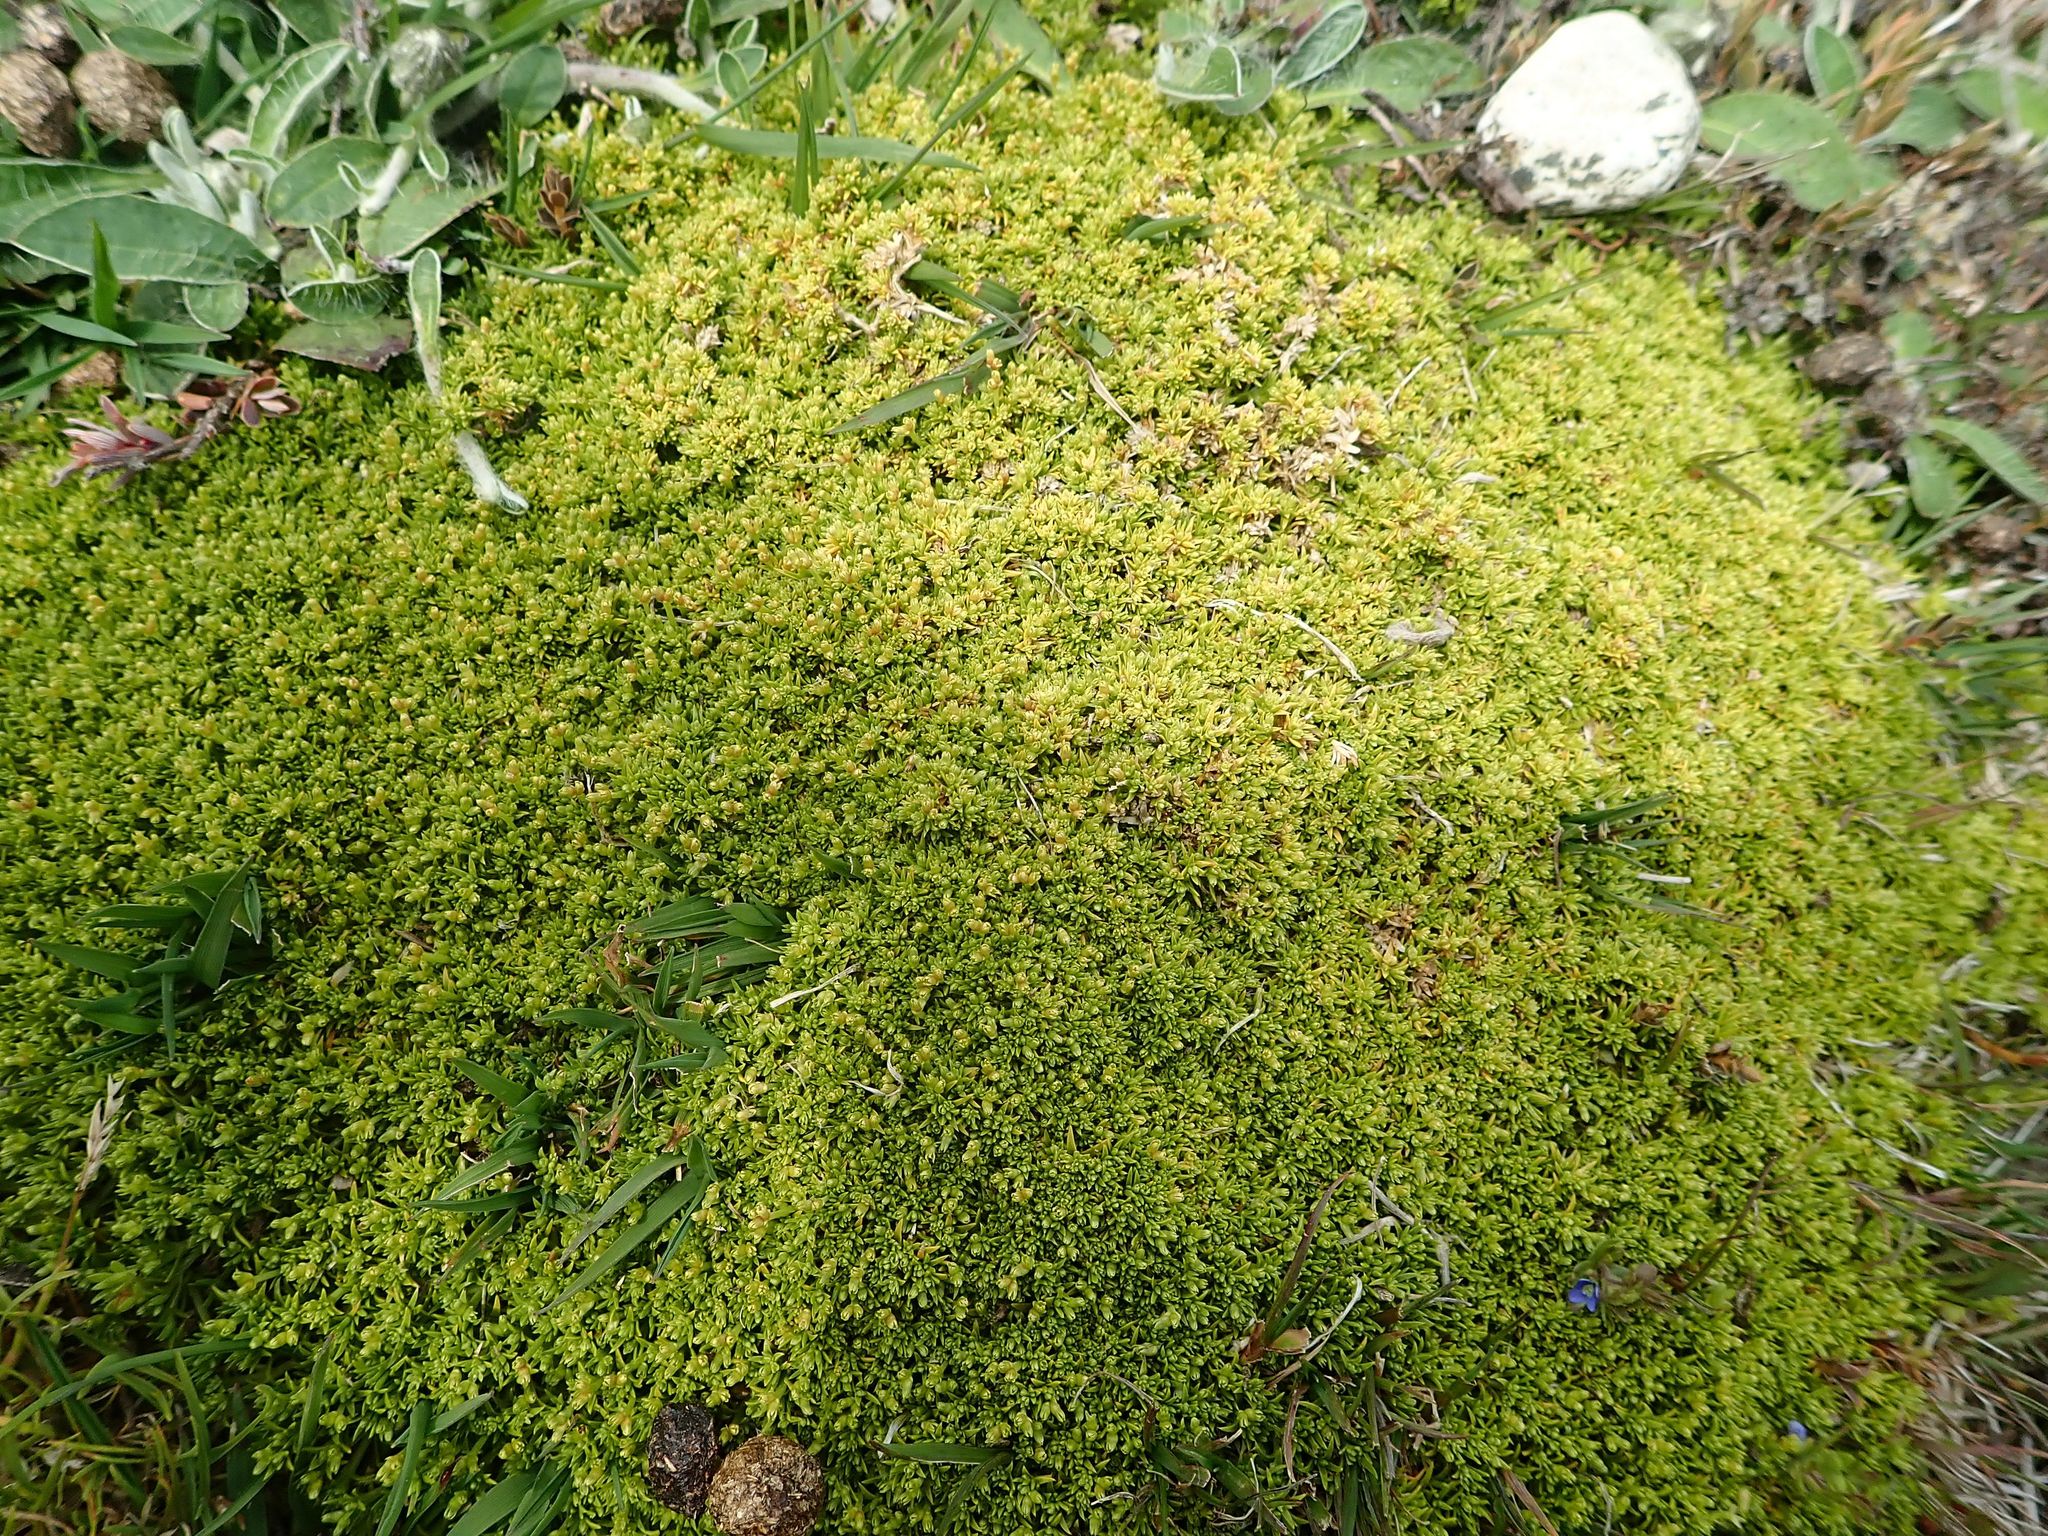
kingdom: Plantae
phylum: Tracheophyta
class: Magnoliopsida
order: Caryophyllales
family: Caryophyllaceae
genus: Scleranthus
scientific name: Scleranthus brockiei
